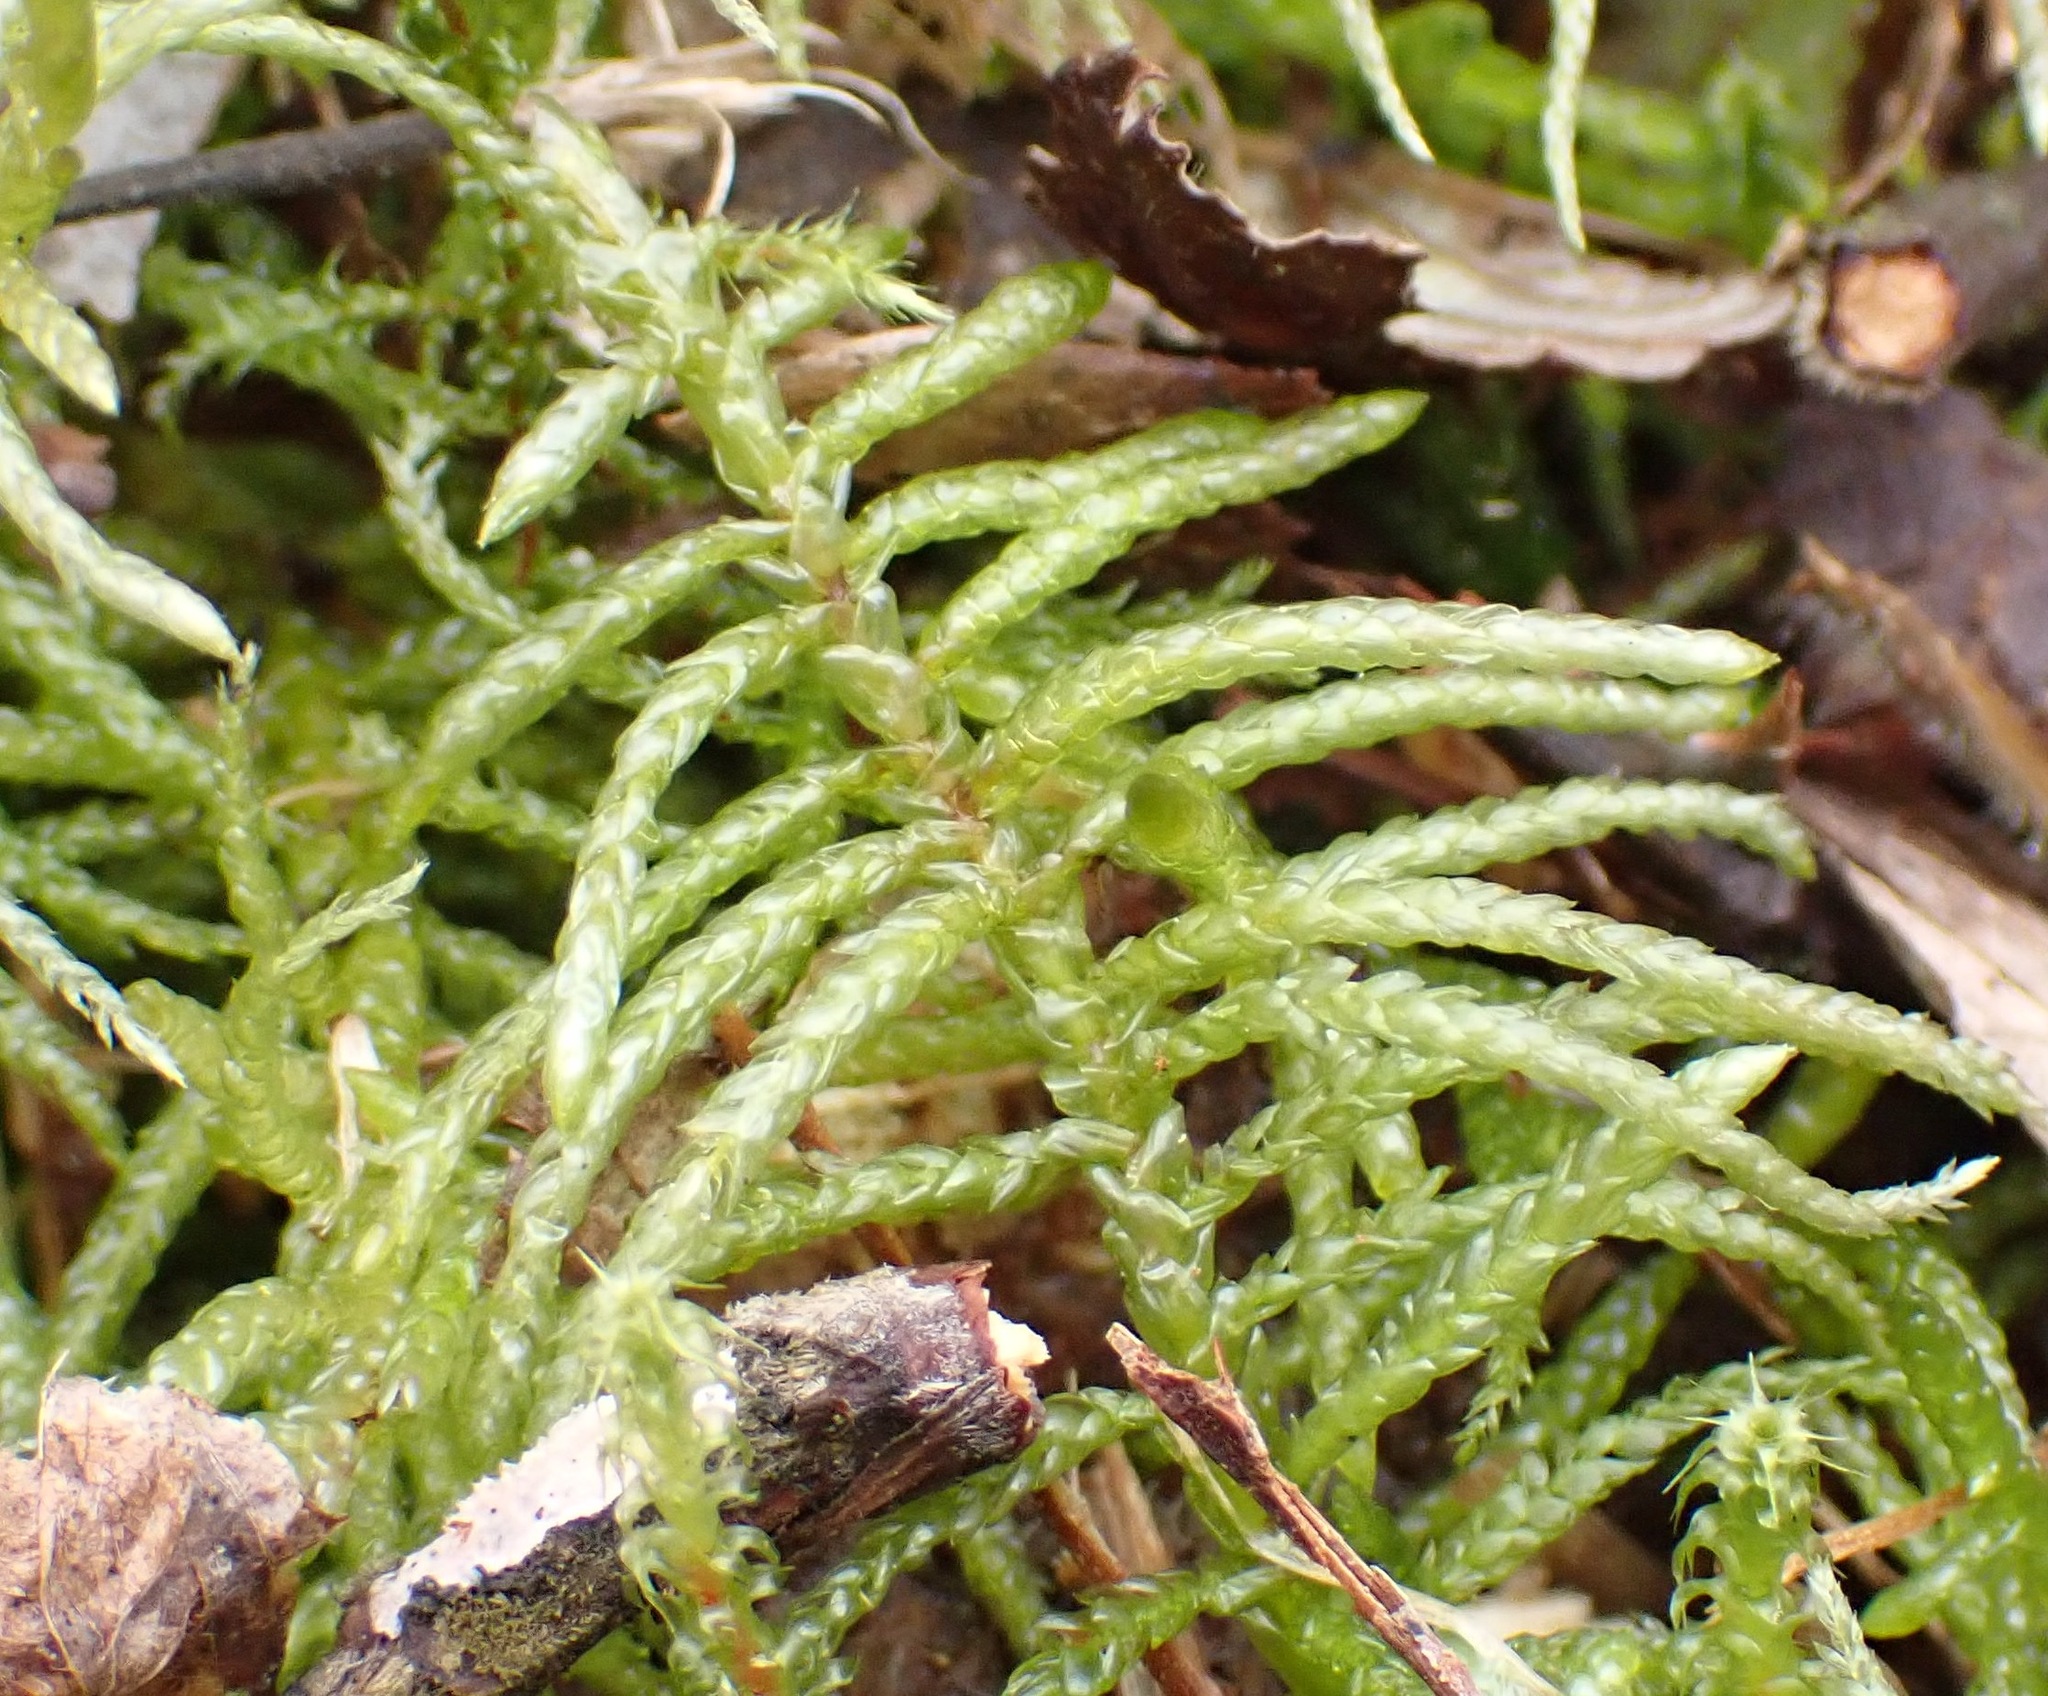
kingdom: Plantae
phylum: Bryophyta
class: Bryopsida
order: Hypnales
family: Brachytheciaceae
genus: Pseudoscleropodium
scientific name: Pseudoscleropodium purum
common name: Neat feather-moss
